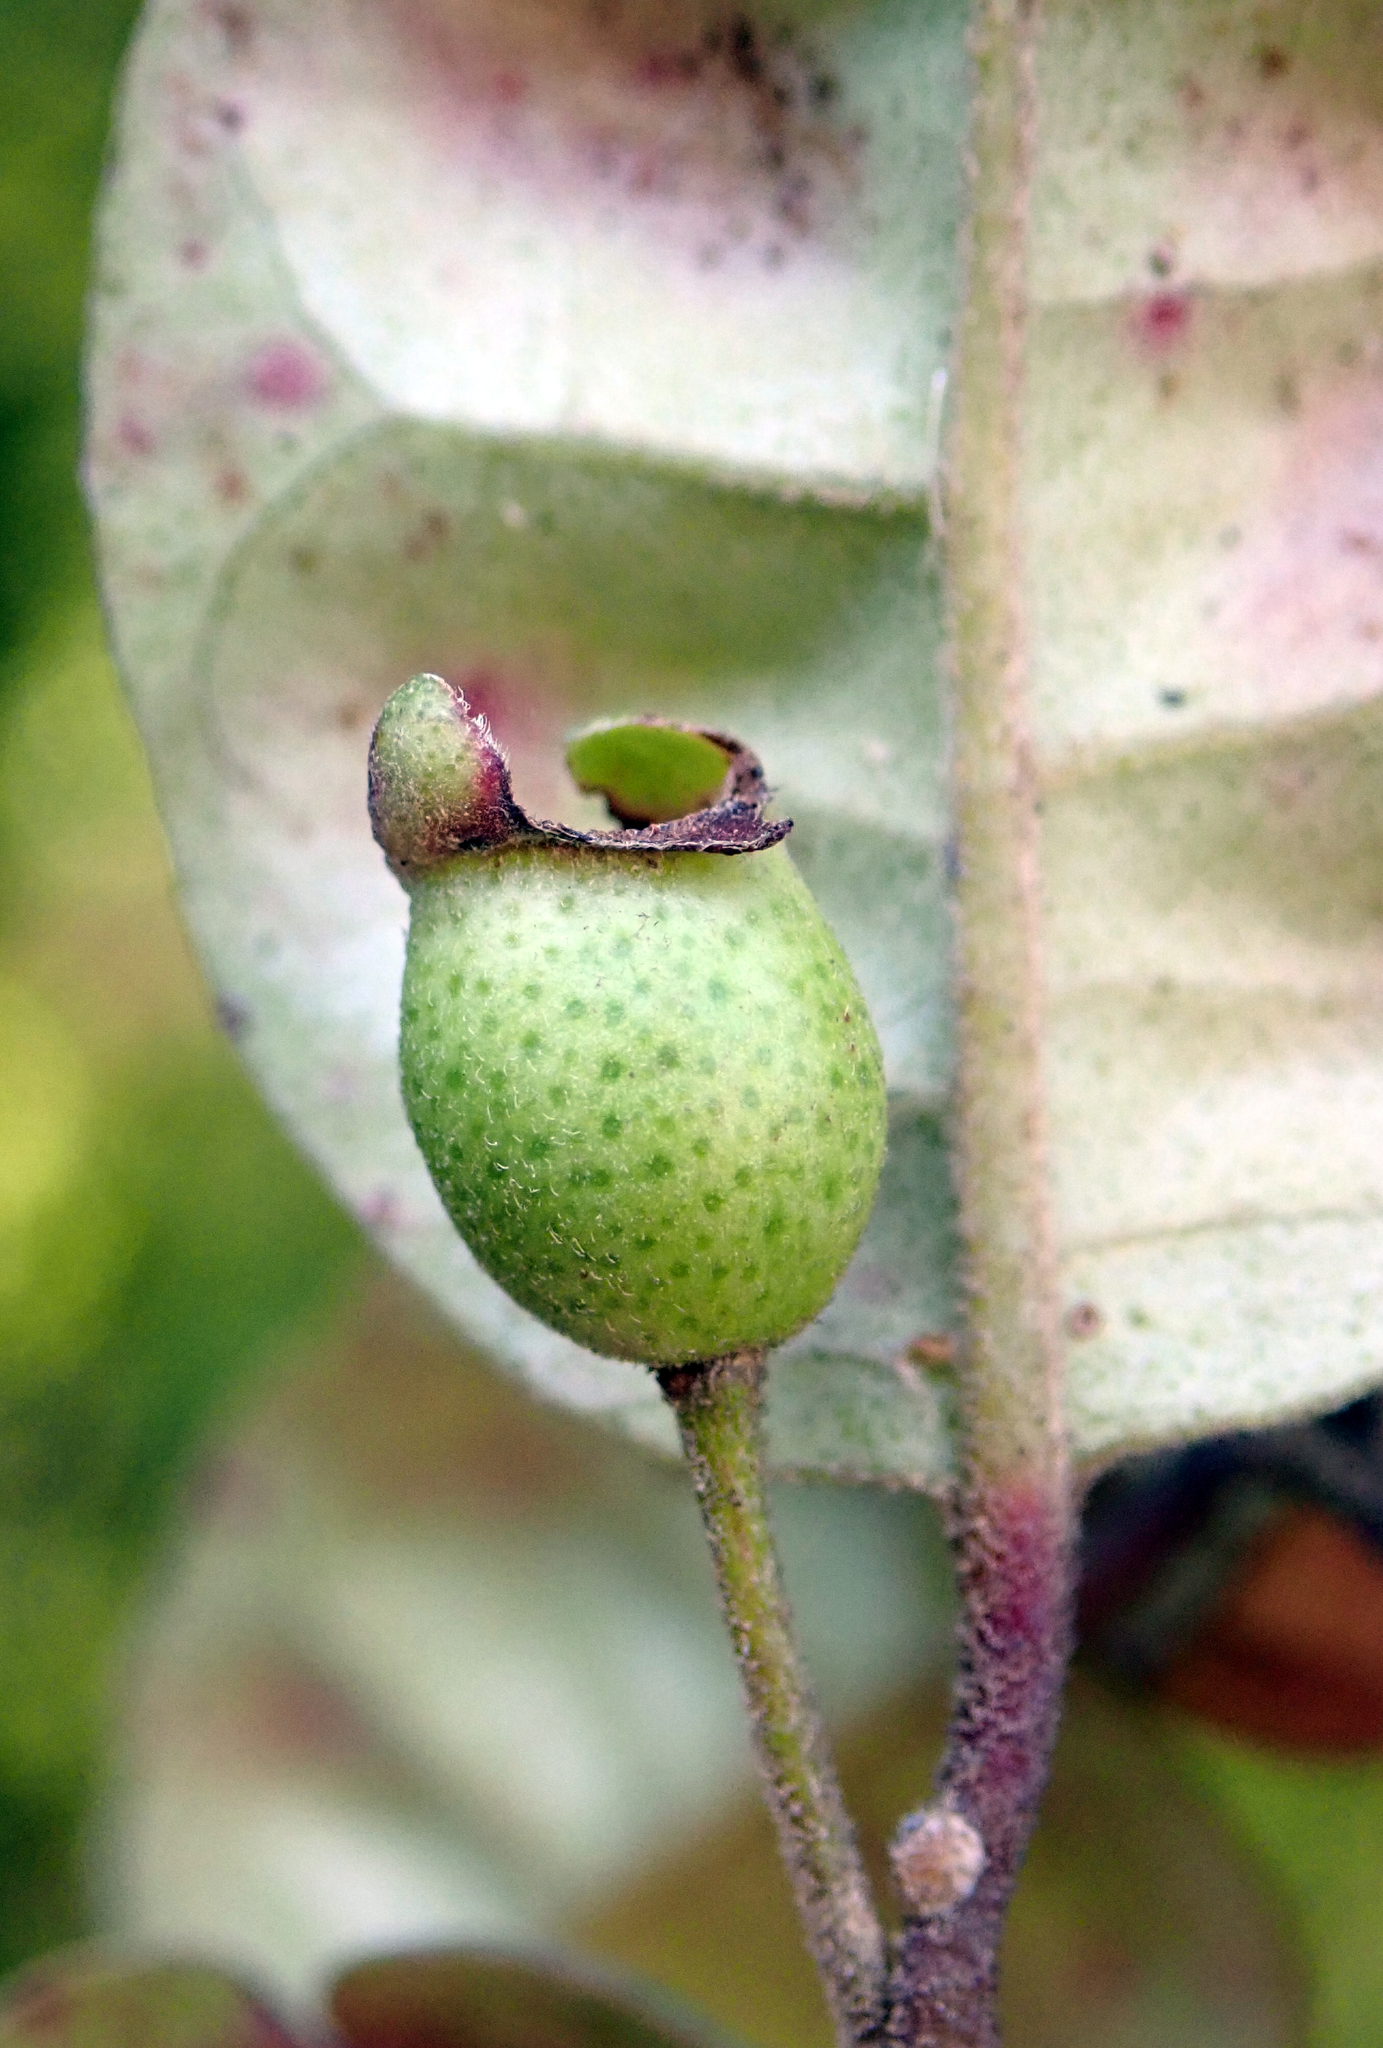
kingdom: Animalia
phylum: Arthropoda
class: Insecta
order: Hemiptera
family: Diaspididae
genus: Hemiberlesia
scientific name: Hemiberlesia lataniae
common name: Latania scale
